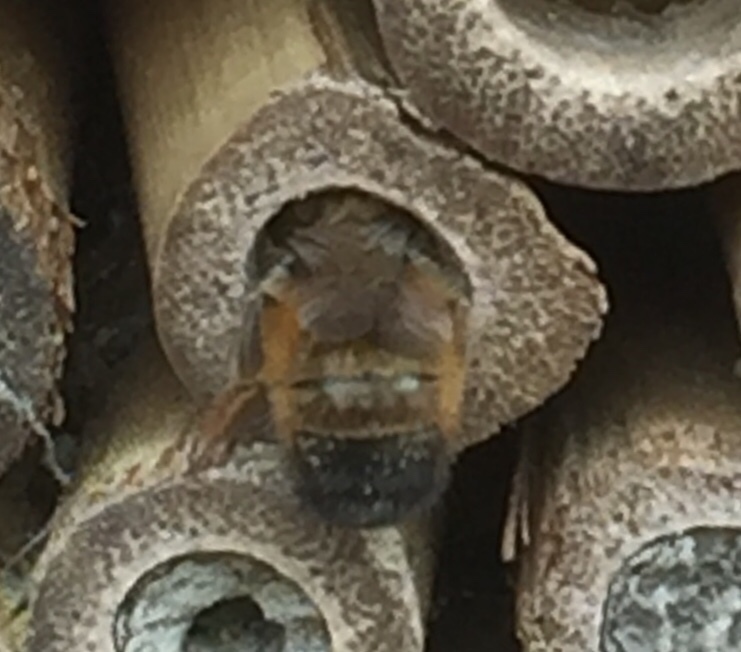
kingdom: Animalia
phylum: Arthropoda
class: Insecta
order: Hymenoptera
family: Megachilidae
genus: Osmia
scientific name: Osmia bicornis
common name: Red mason bee
